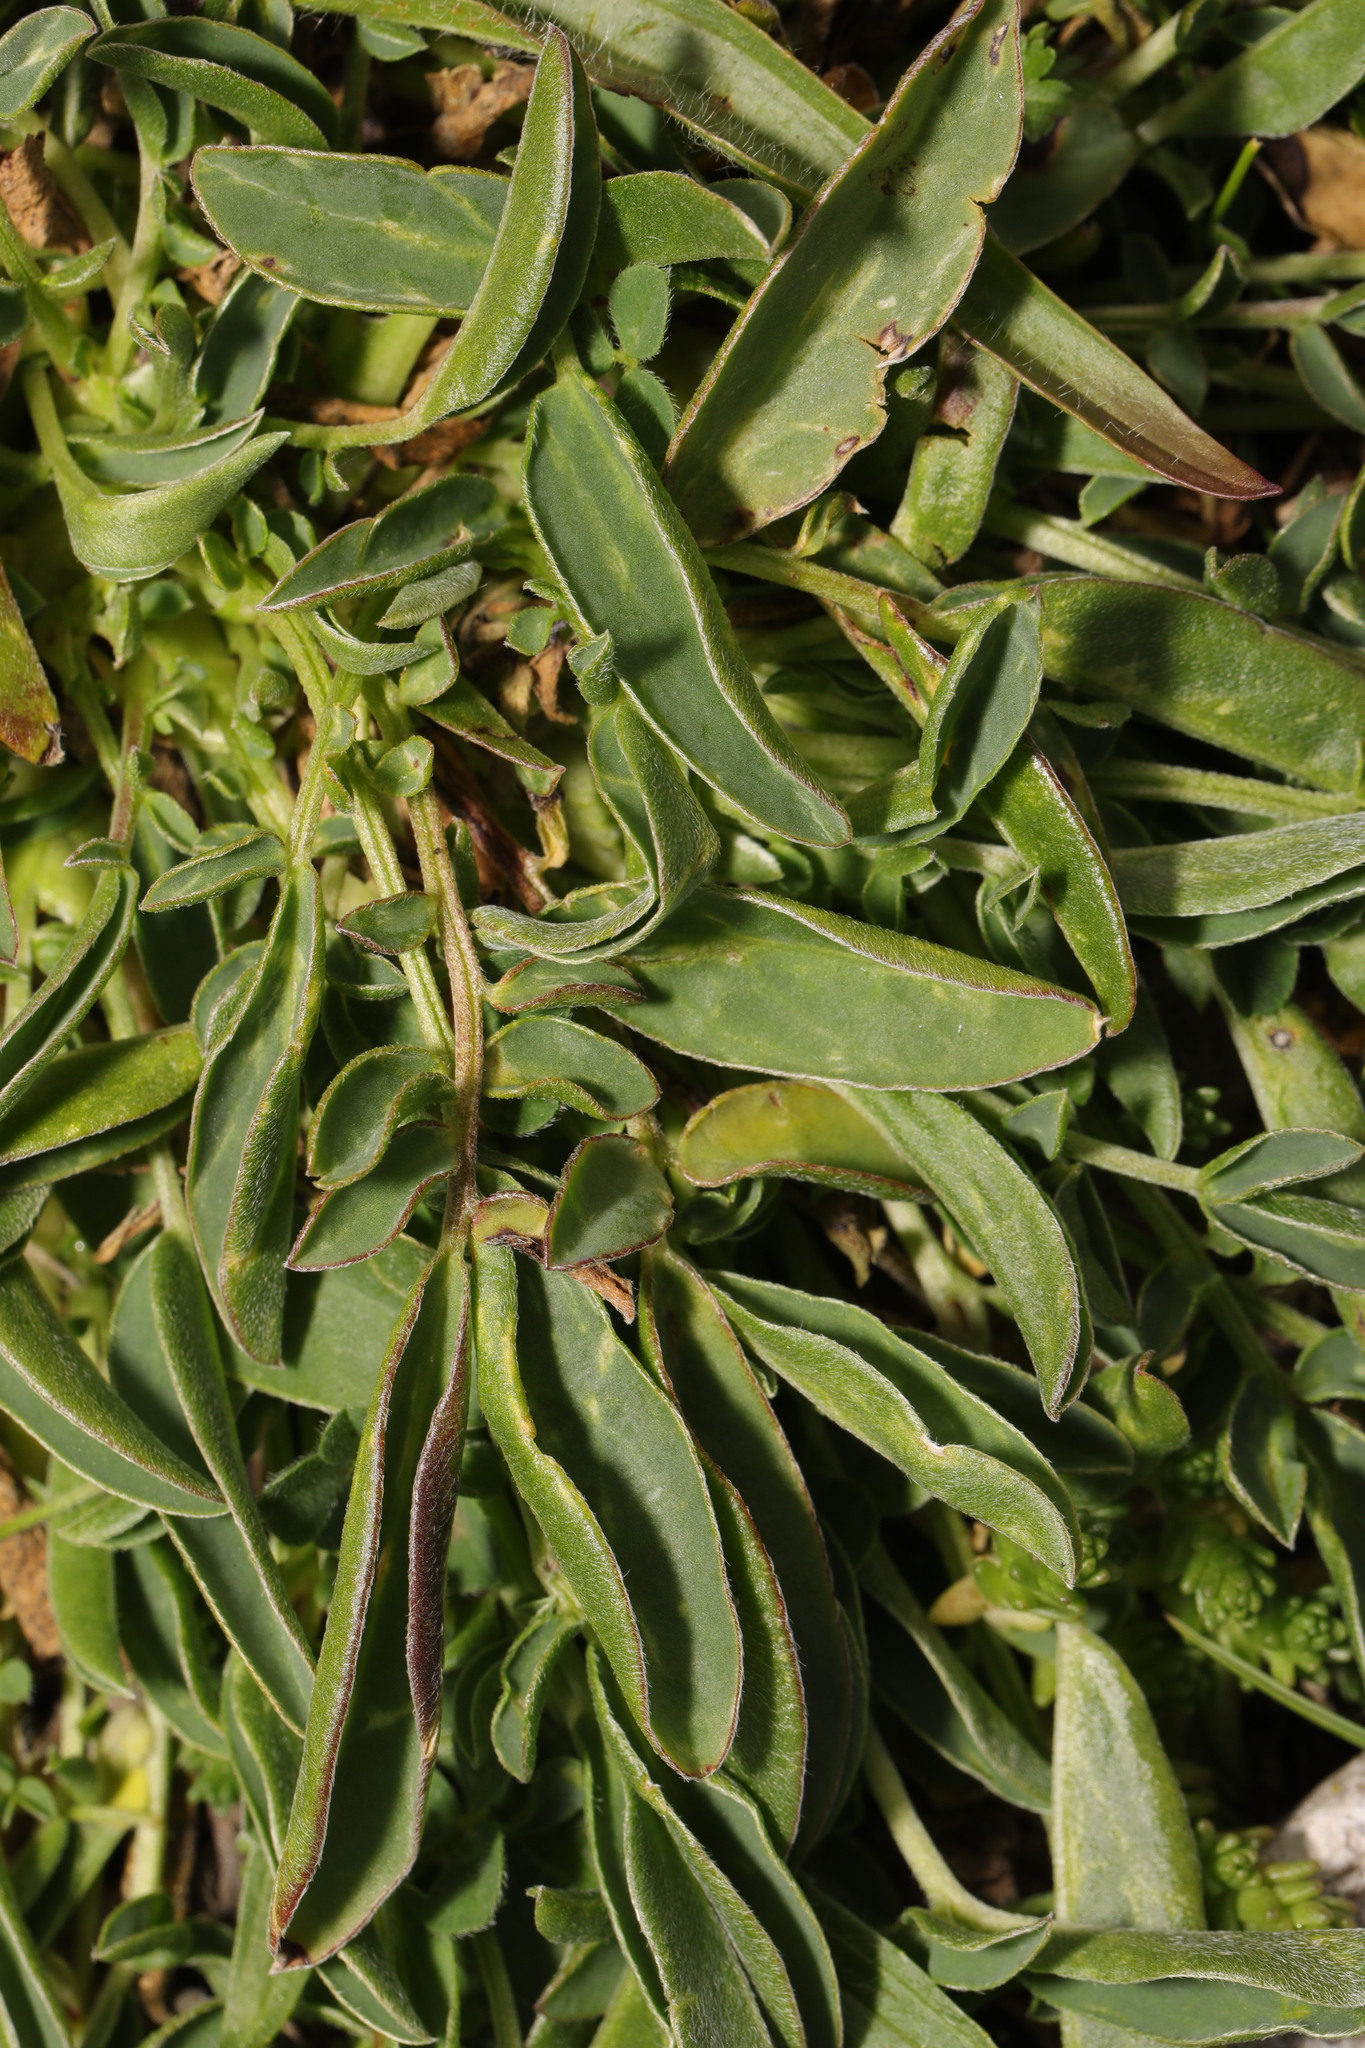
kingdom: Plantae
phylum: Tracheophyta
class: Magnoliopsida
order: Fabales
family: Fabaceae
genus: Anthyllis
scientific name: Anthyllis vulneraria
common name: Kidney vetch
